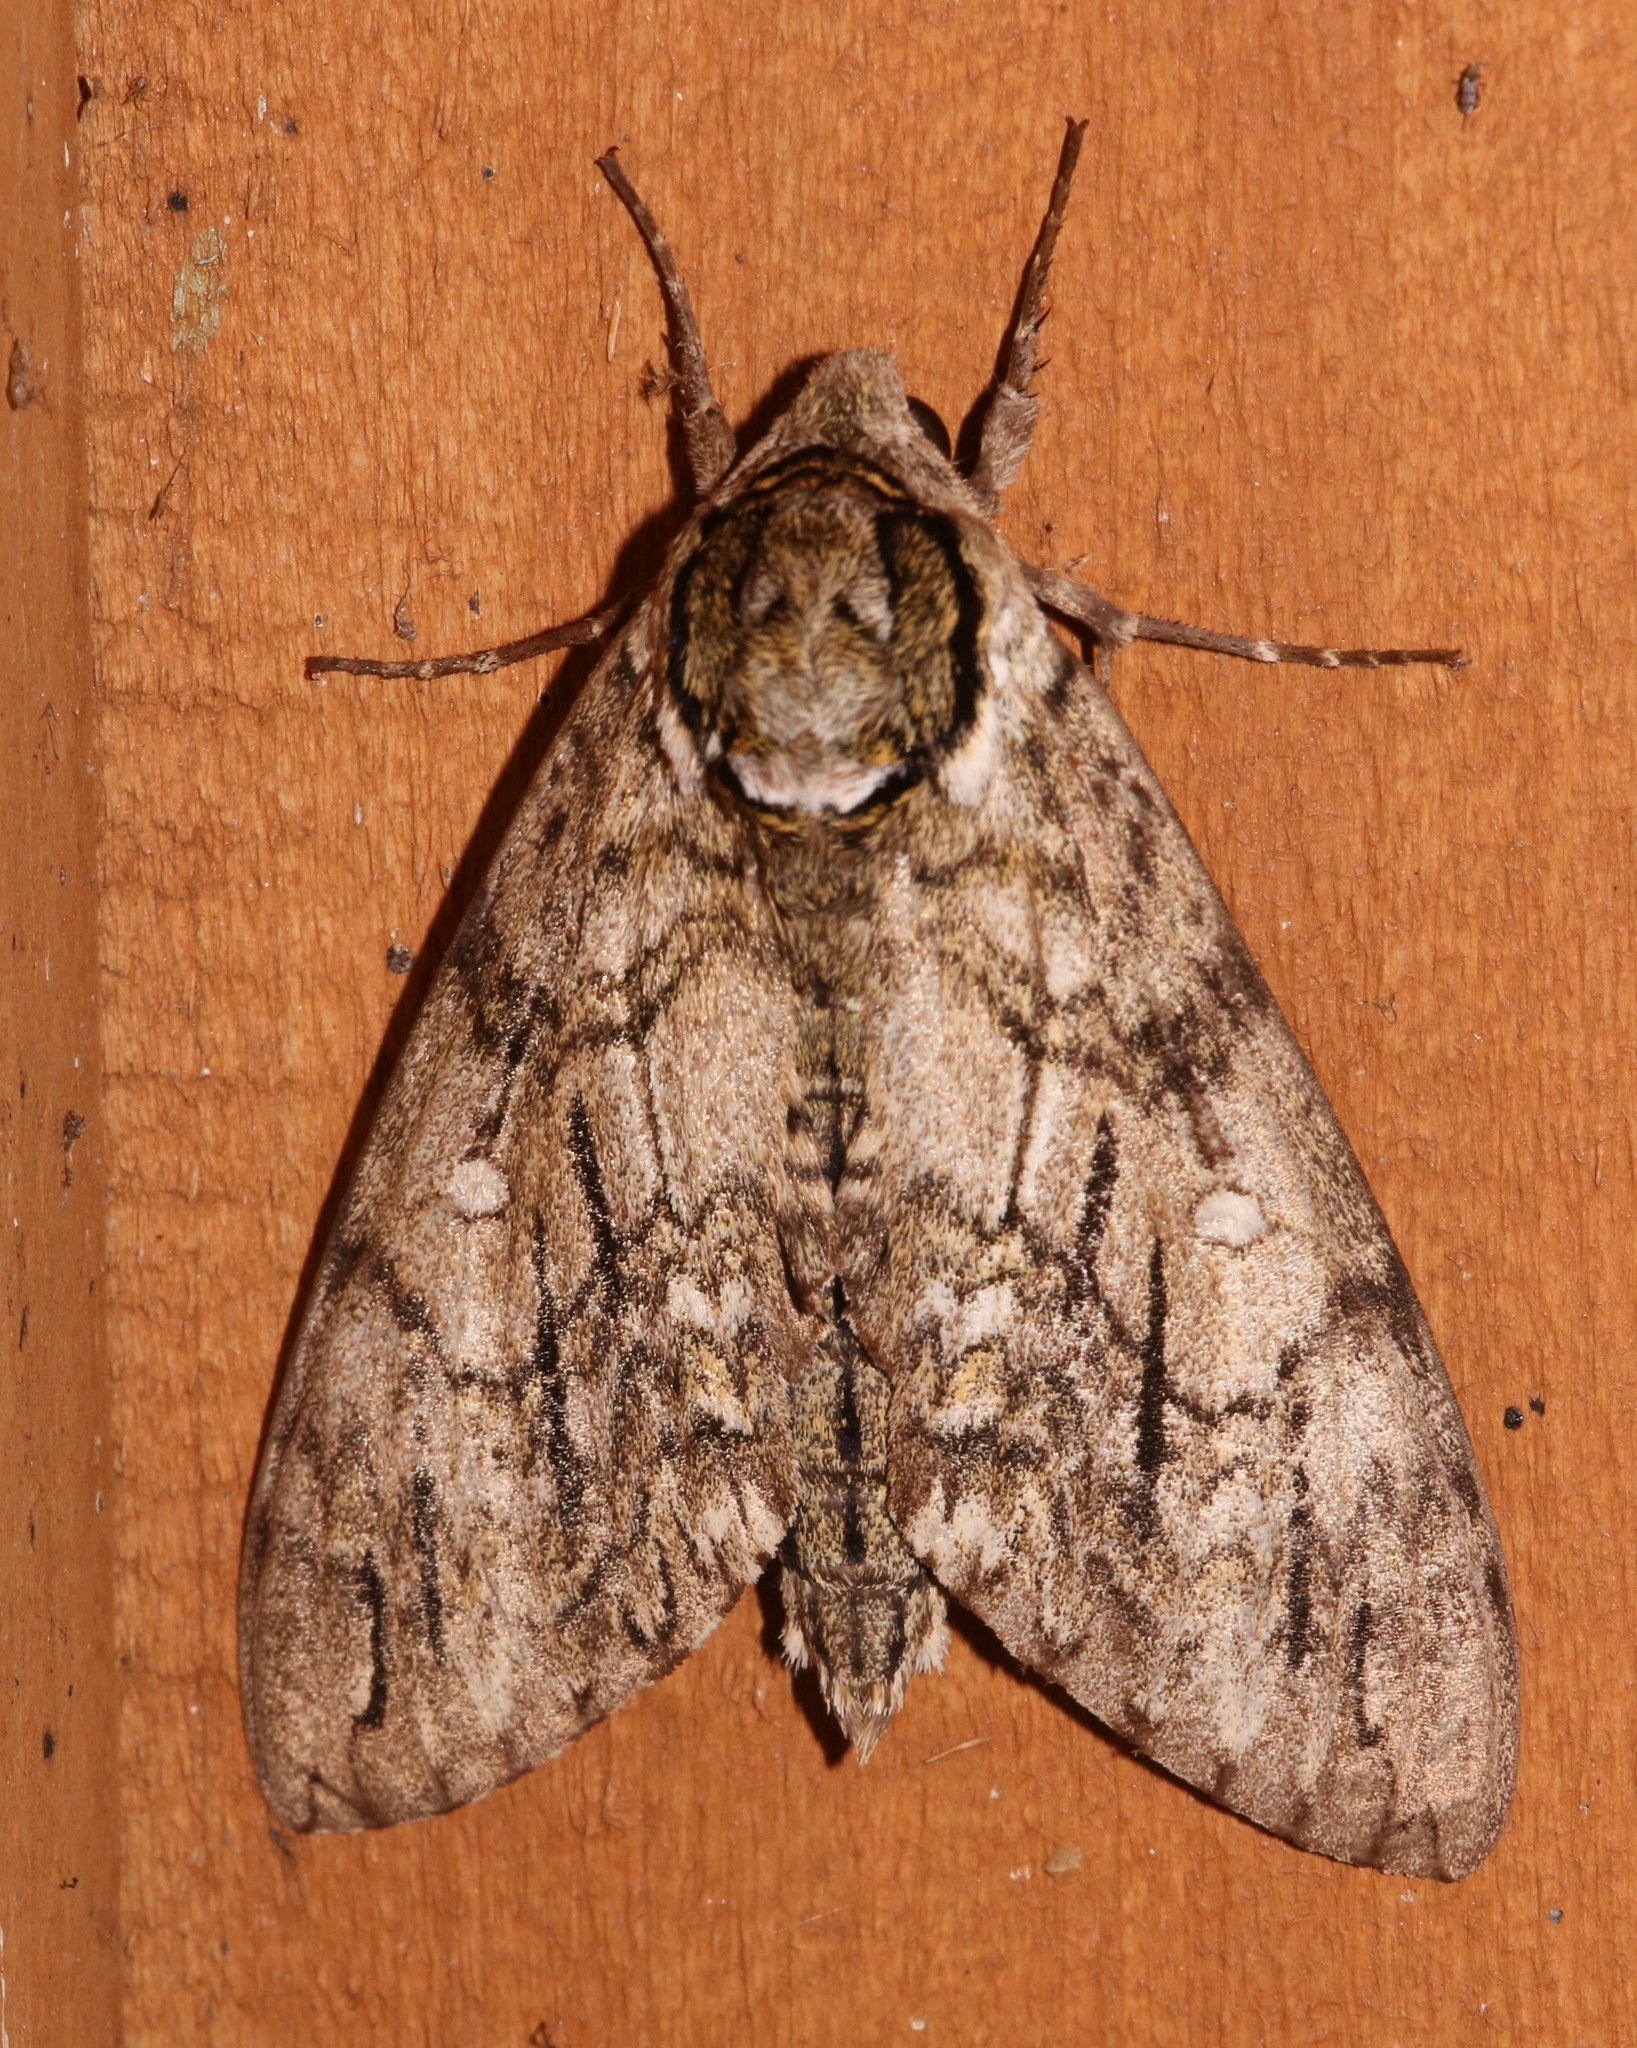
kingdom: Animalia
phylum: Arthropoda
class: Insecta
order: Lepidoptera
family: Sphingidae
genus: Ceratomia
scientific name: Ceratomia undulosa
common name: Waved sphinx
